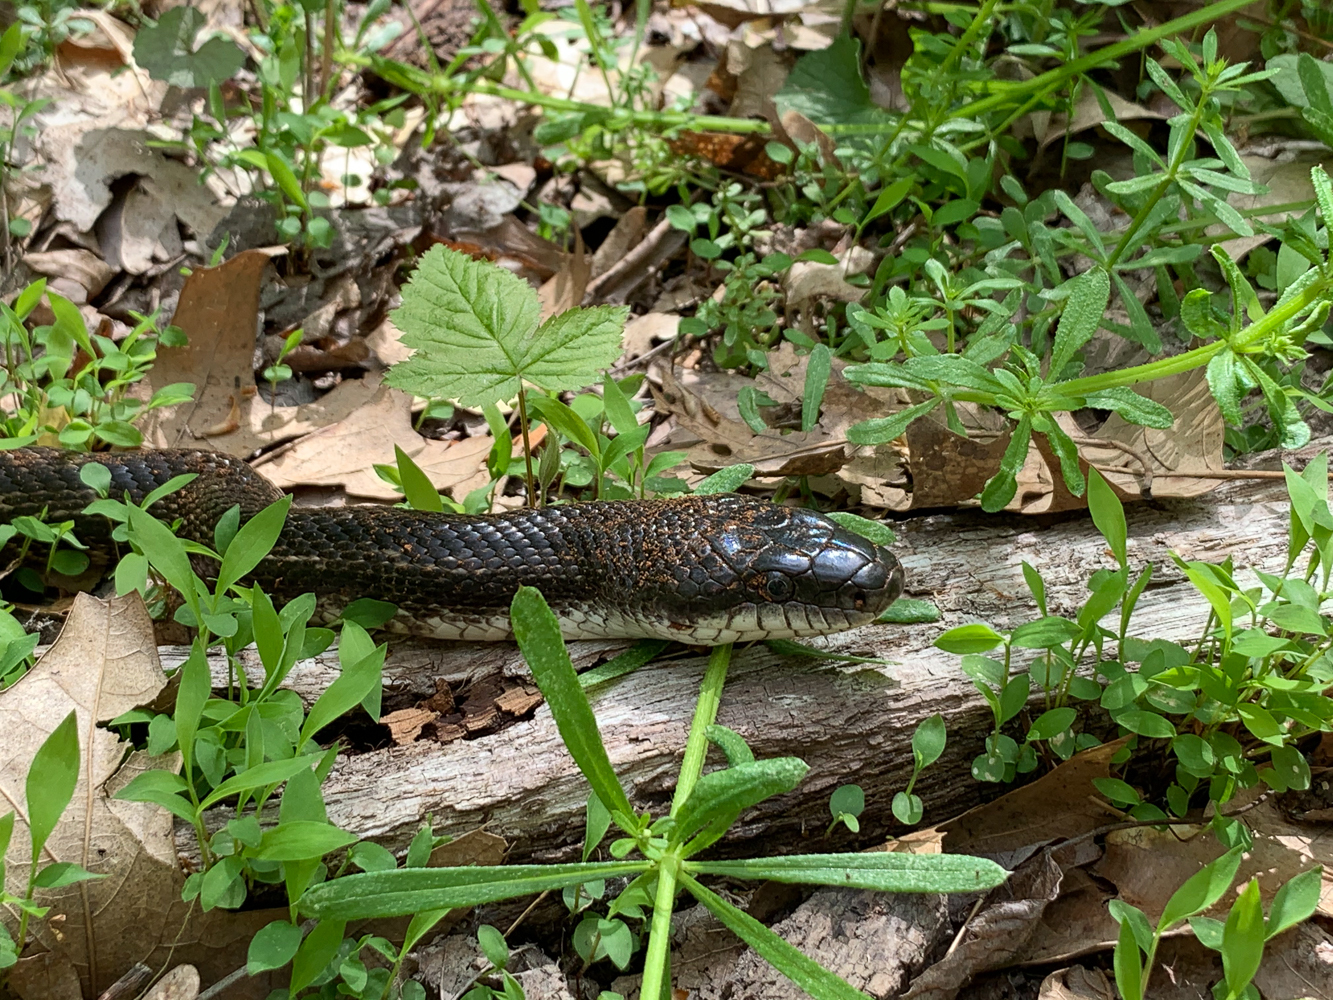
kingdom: Animalia
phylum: Chordata
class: Squamata
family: Colubridae
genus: Pantherophis
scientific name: Pantherophis spiloides
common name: Gray rat snake
